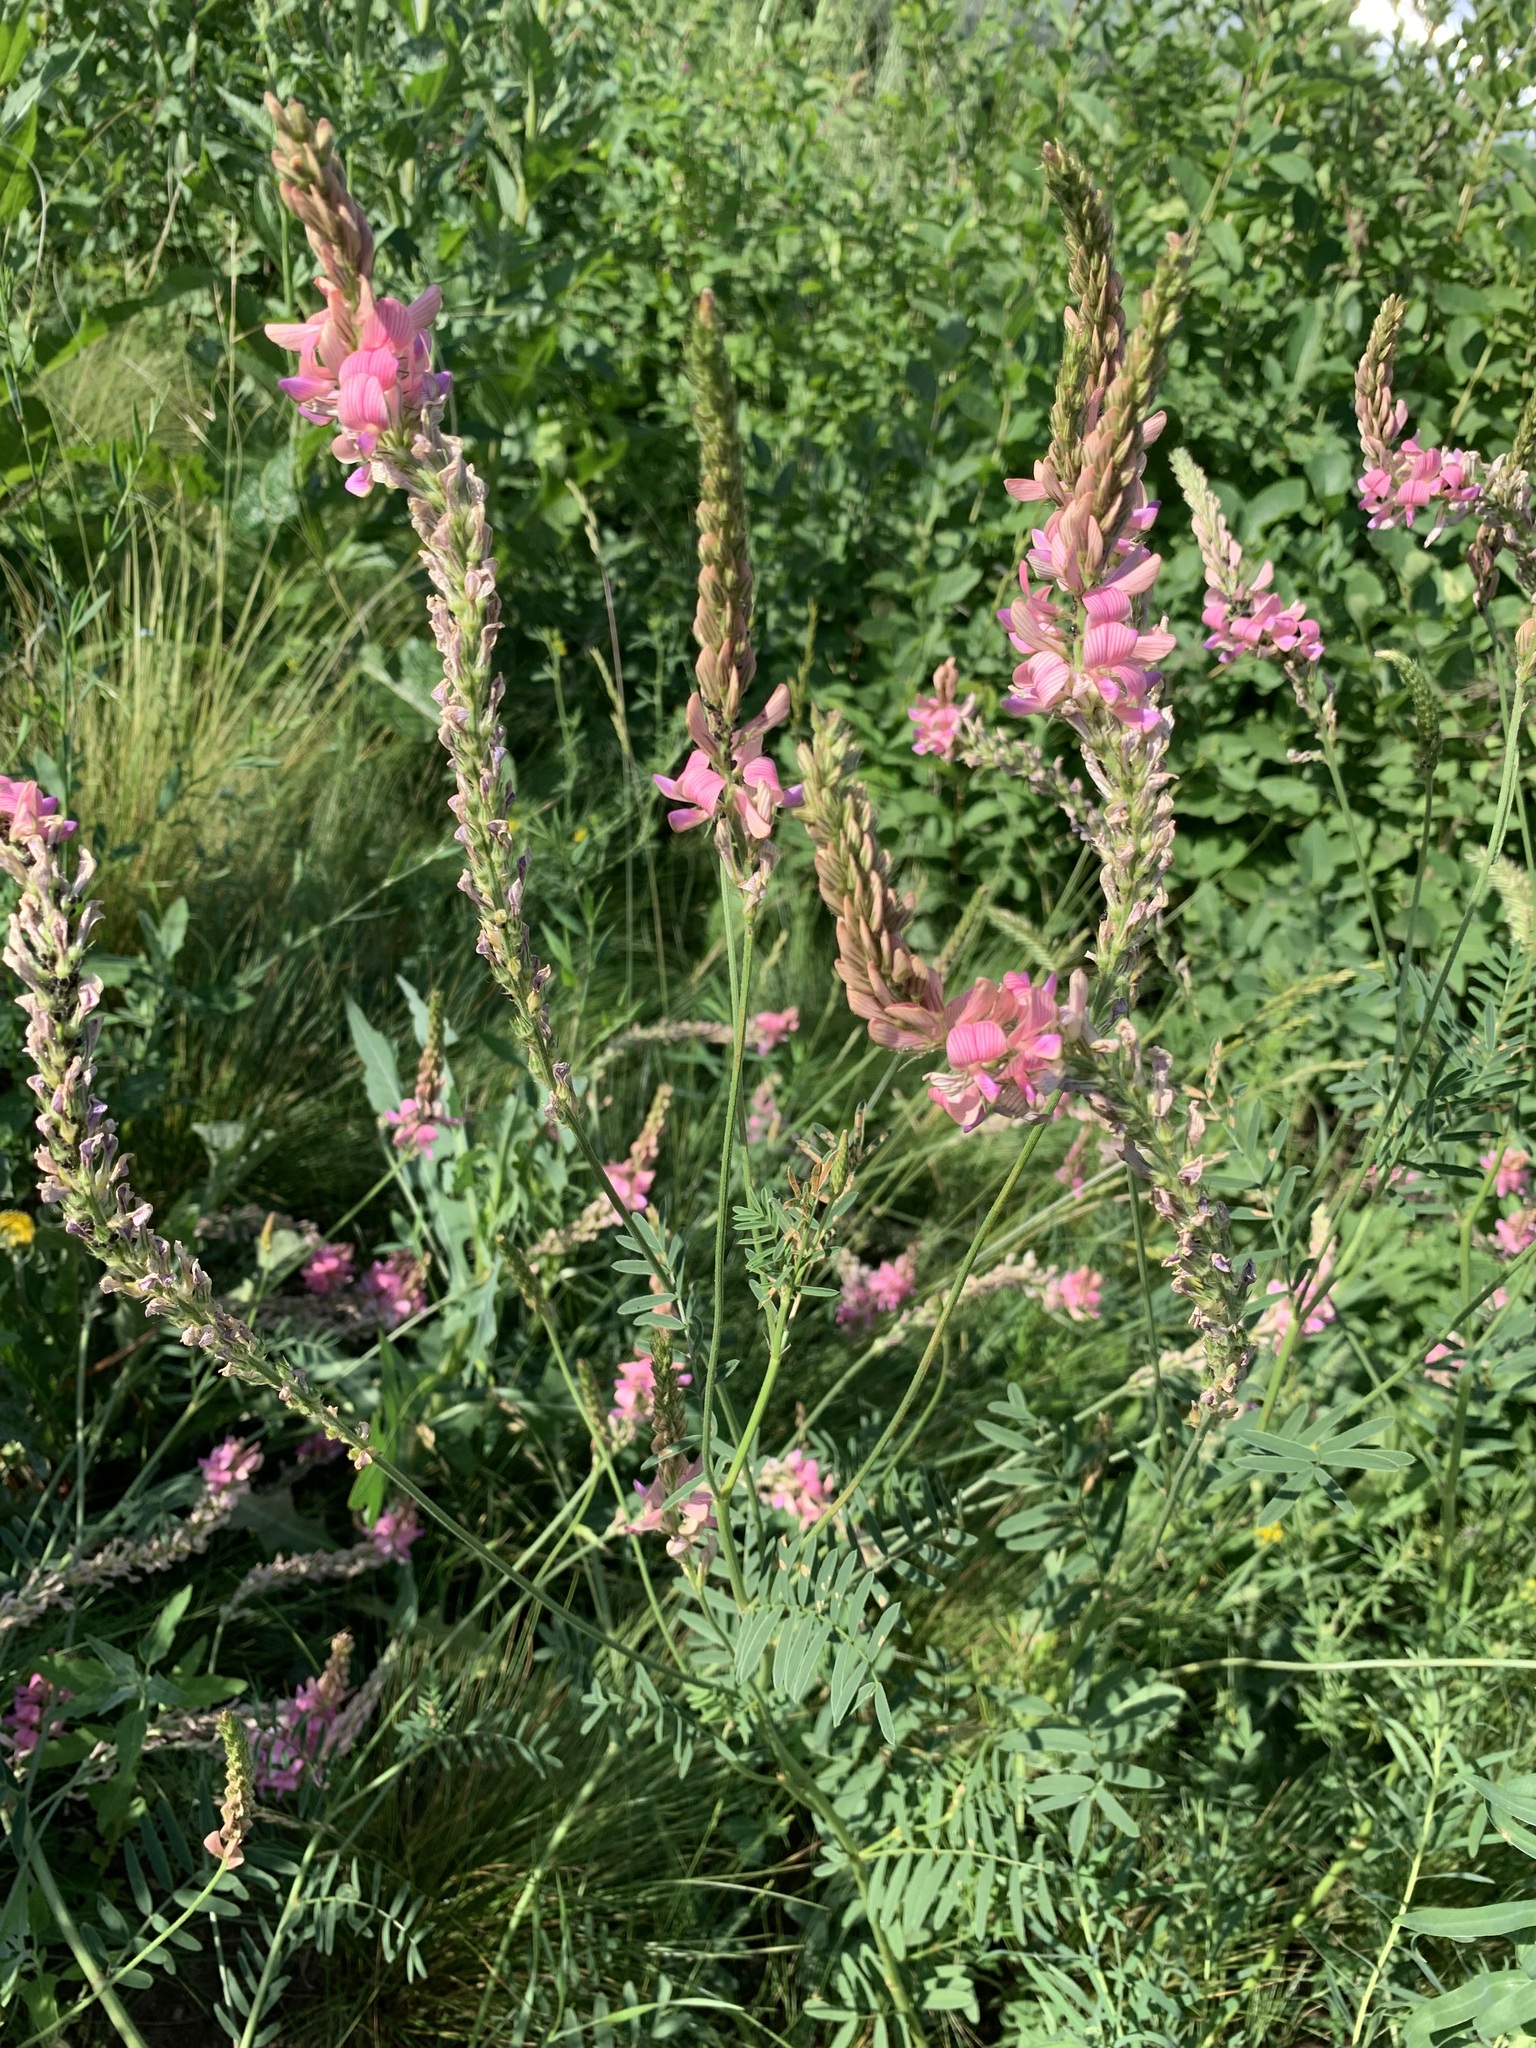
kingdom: Plantae
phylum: Tracheophyta
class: Magnoliopsida
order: Fabales
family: Fabaceae
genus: Onobrychis
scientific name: Onobrychis viciifolia
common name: Sainfoin
